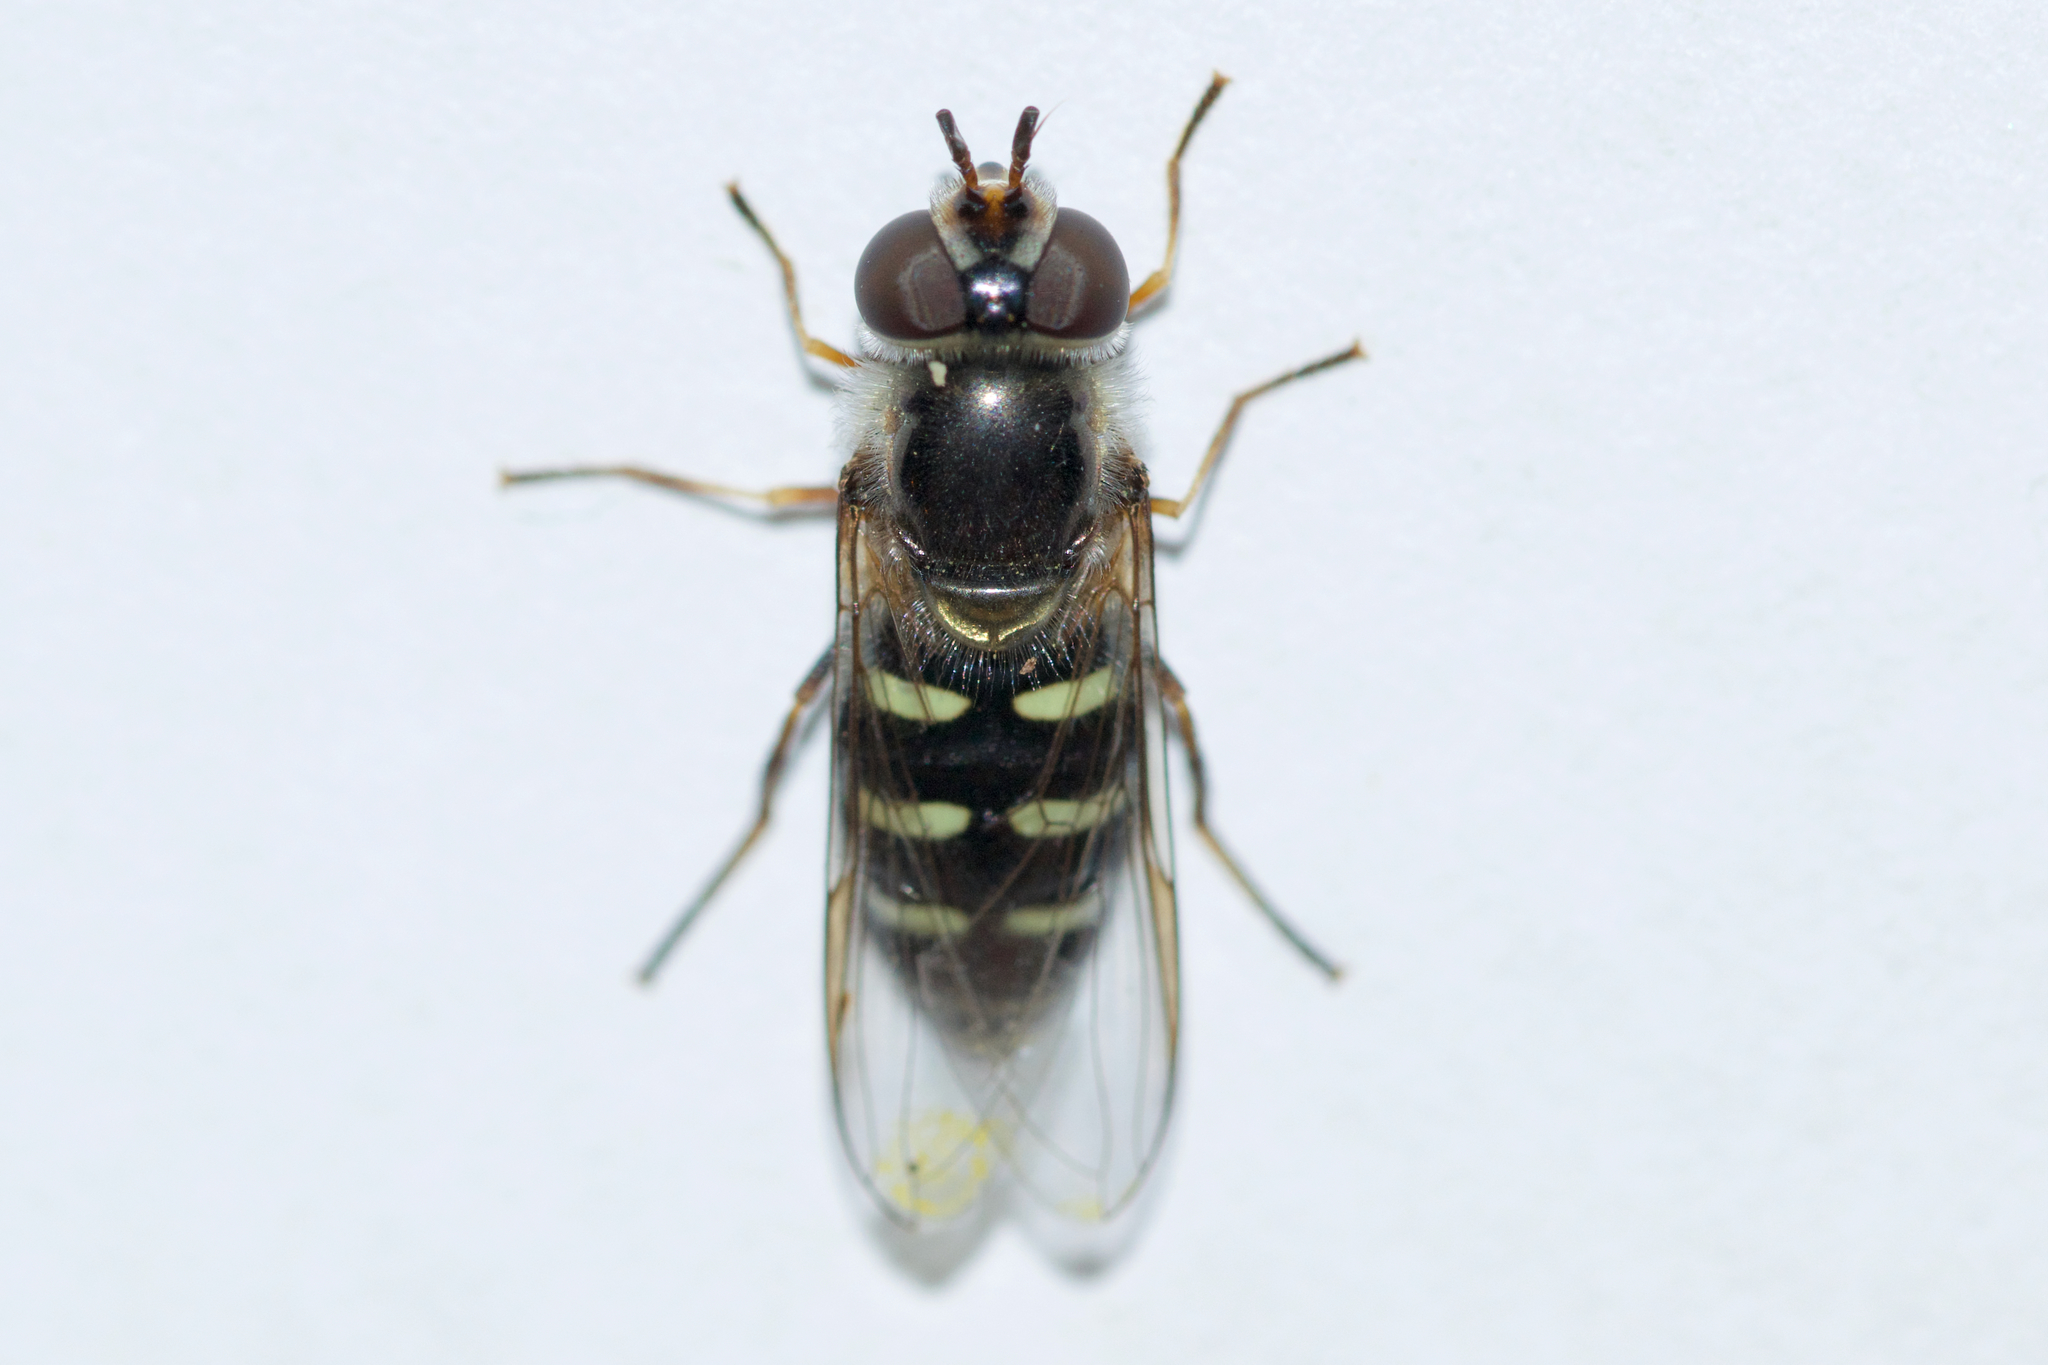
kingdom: Animalia
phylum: Arthropoda
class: Insecta
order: Diptera
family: Syrphidae
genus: Eupeodes
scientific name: Eupeodes perplexus
